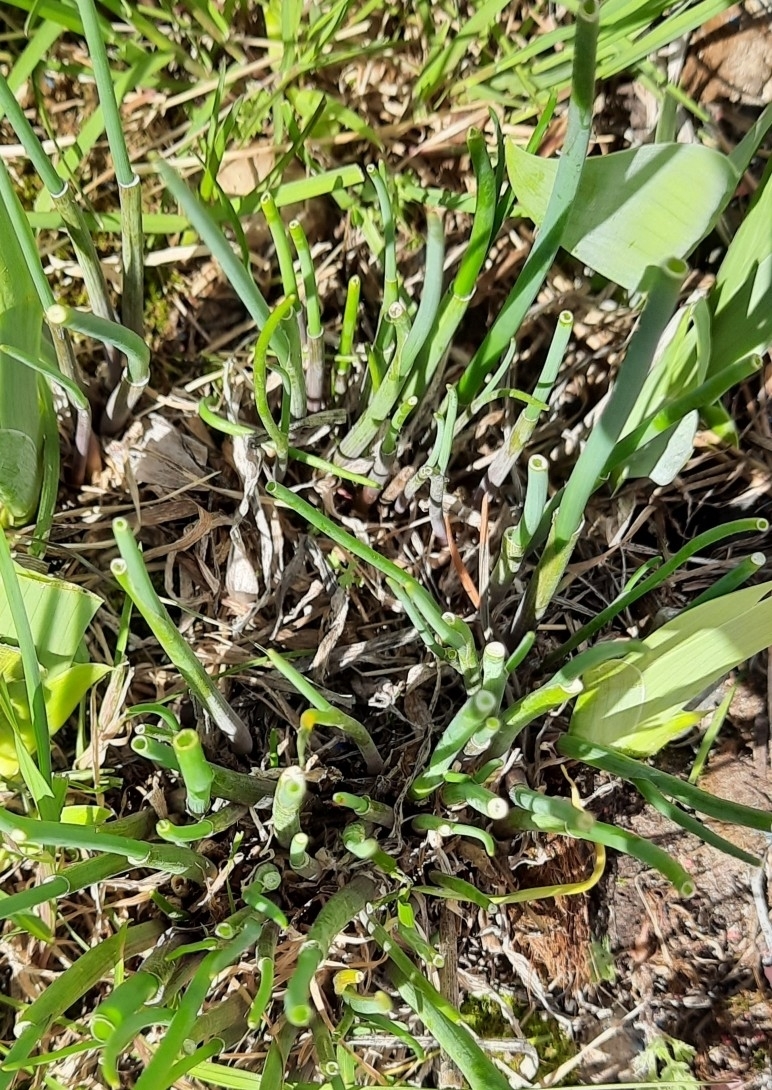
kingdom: Plantae
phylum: Tracheophyta
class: Liliopsida
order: Asparagales
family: Amaryllidaceae
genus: Allium
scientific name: Allium schoenoprasum
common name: Chives
